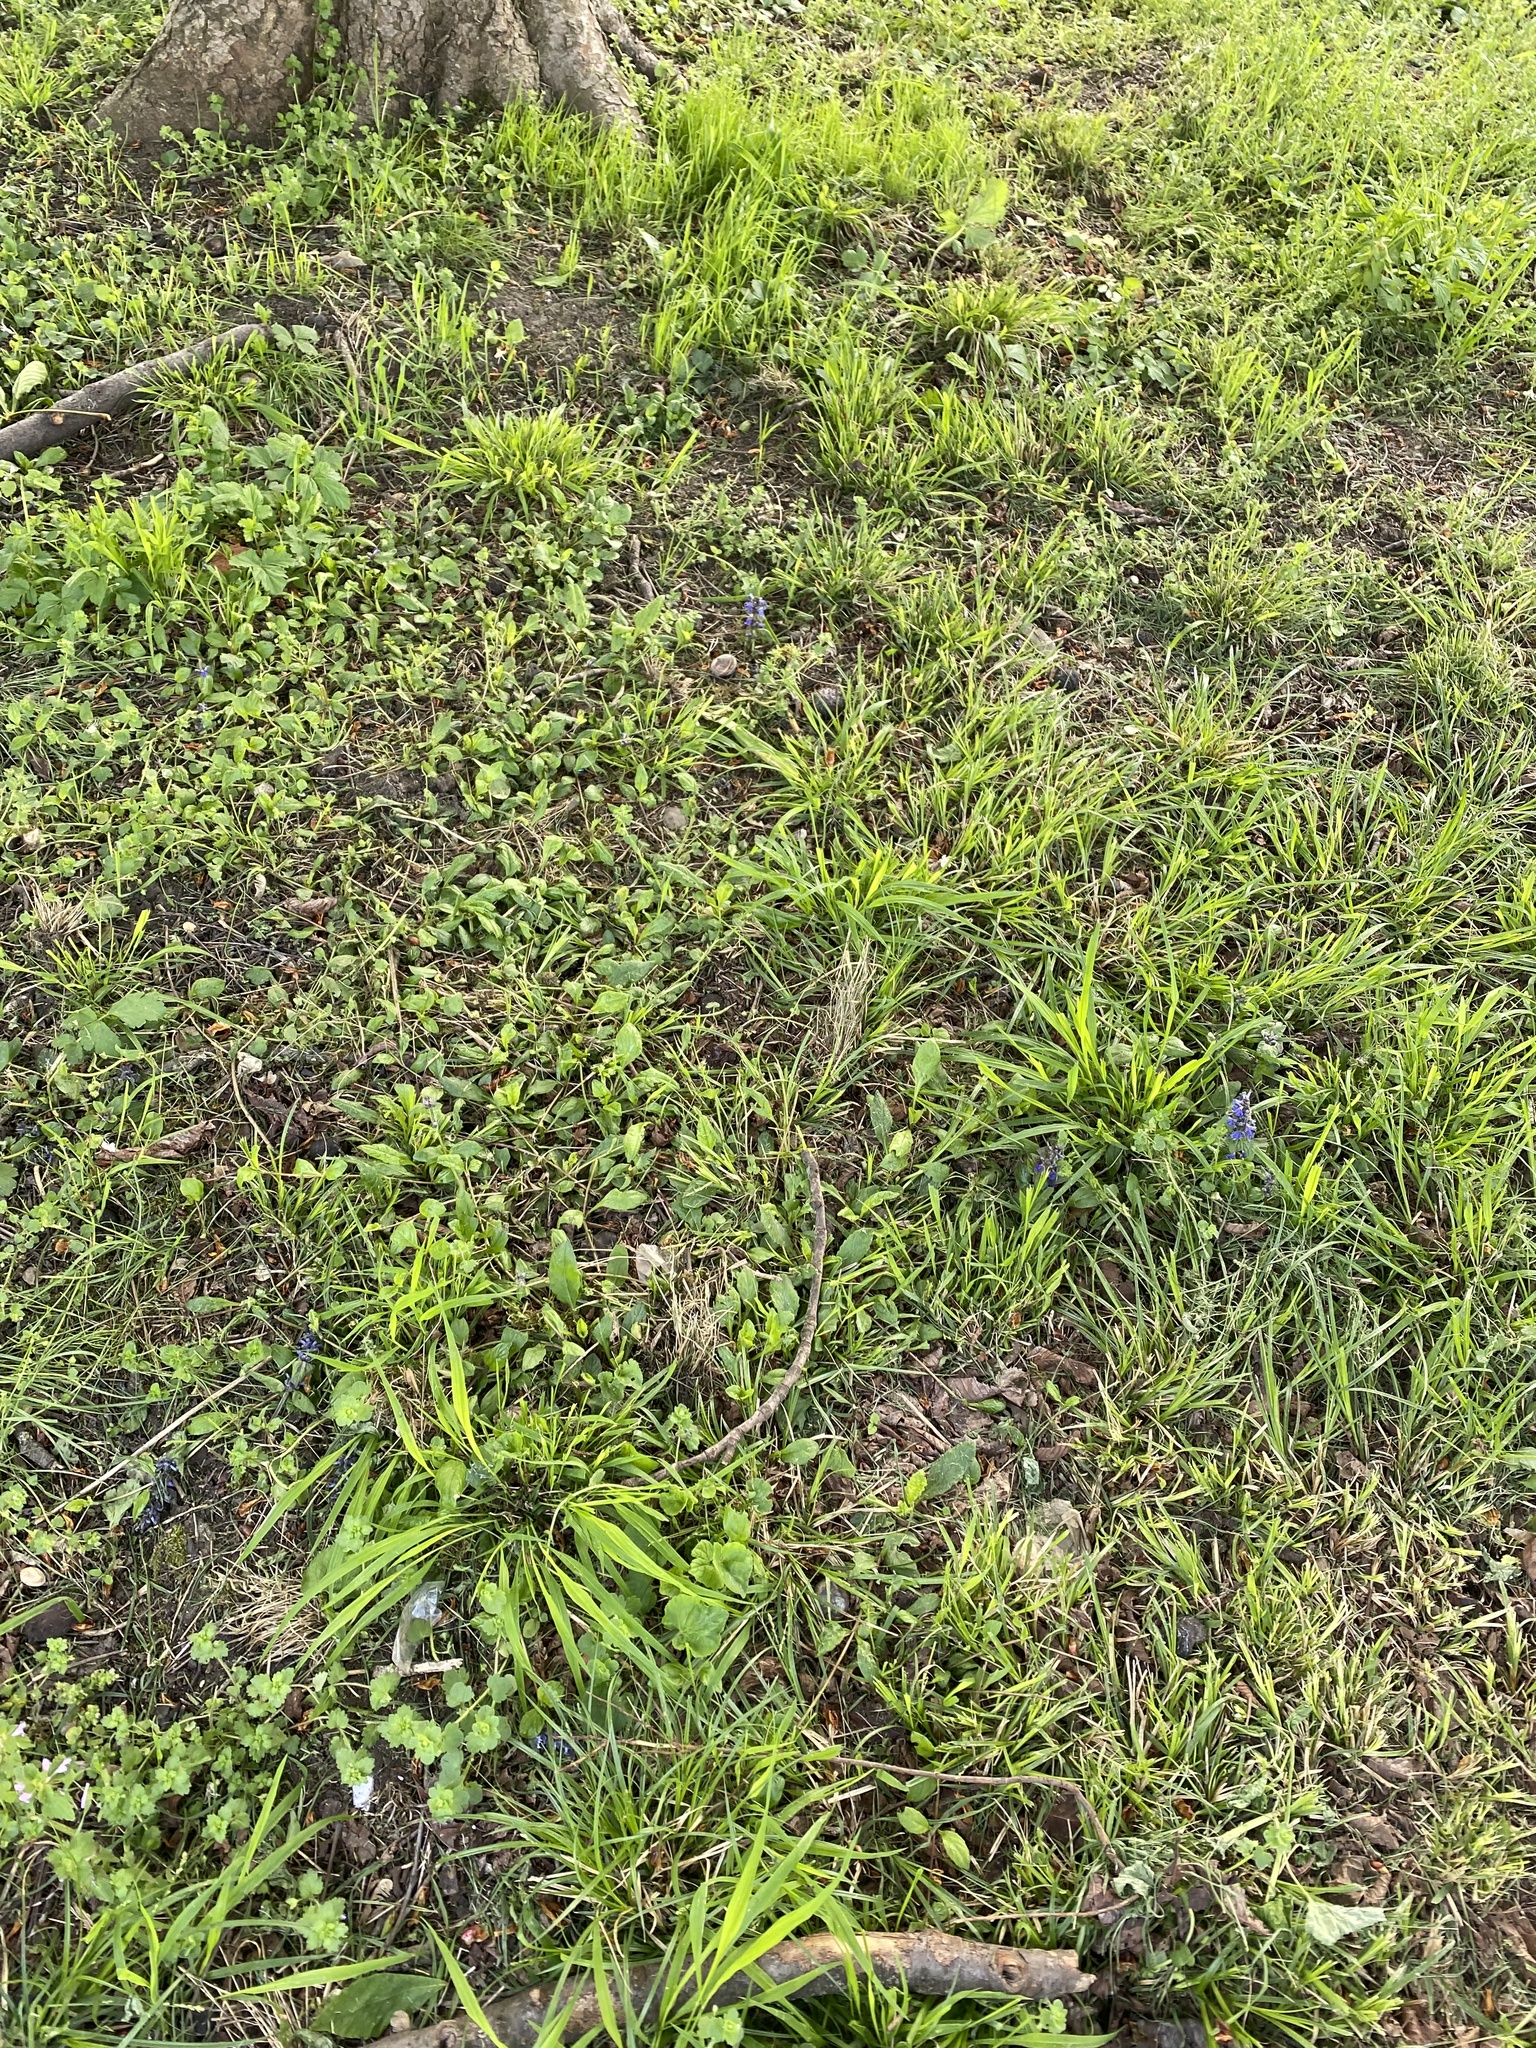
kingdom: Plantae
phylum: Tracheophyta
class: Magnoliopsida
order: Lamiales
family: Lamiaceae
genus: Ajuga
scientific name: Ajuga reptans
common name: Bugle
